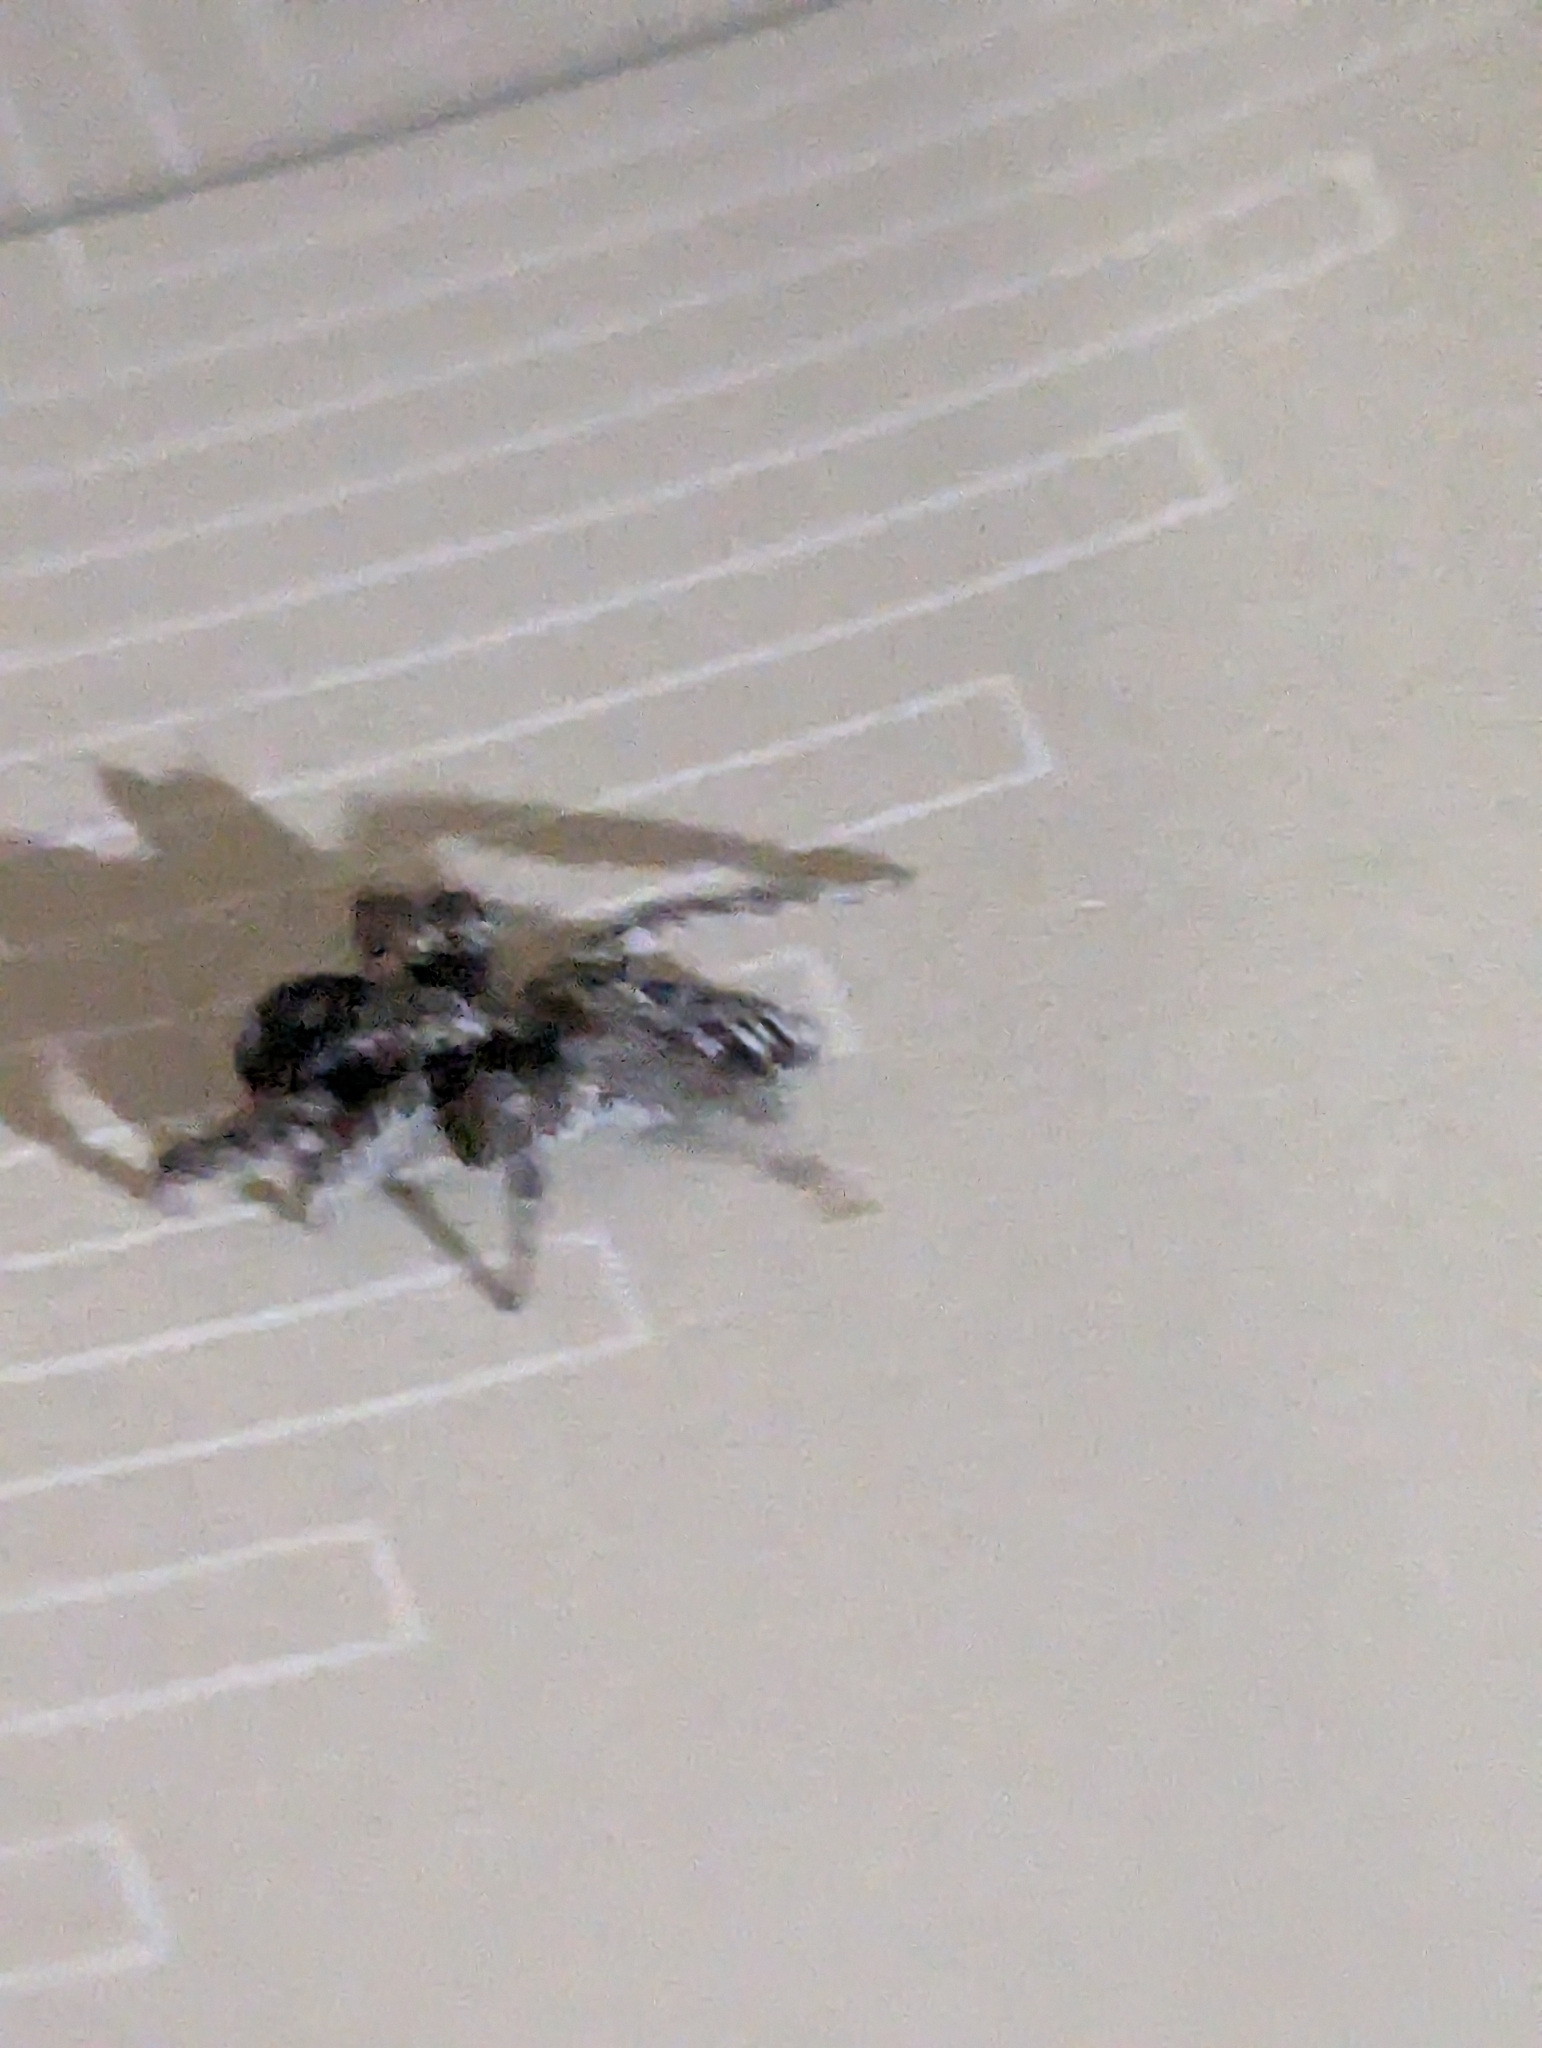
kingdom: Animalia
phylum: Arthropoda
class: Arachnida
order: Araneae
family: Salticidae
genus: Platycryptus
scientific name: Platycryptus californicus
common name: Jumping spiders
